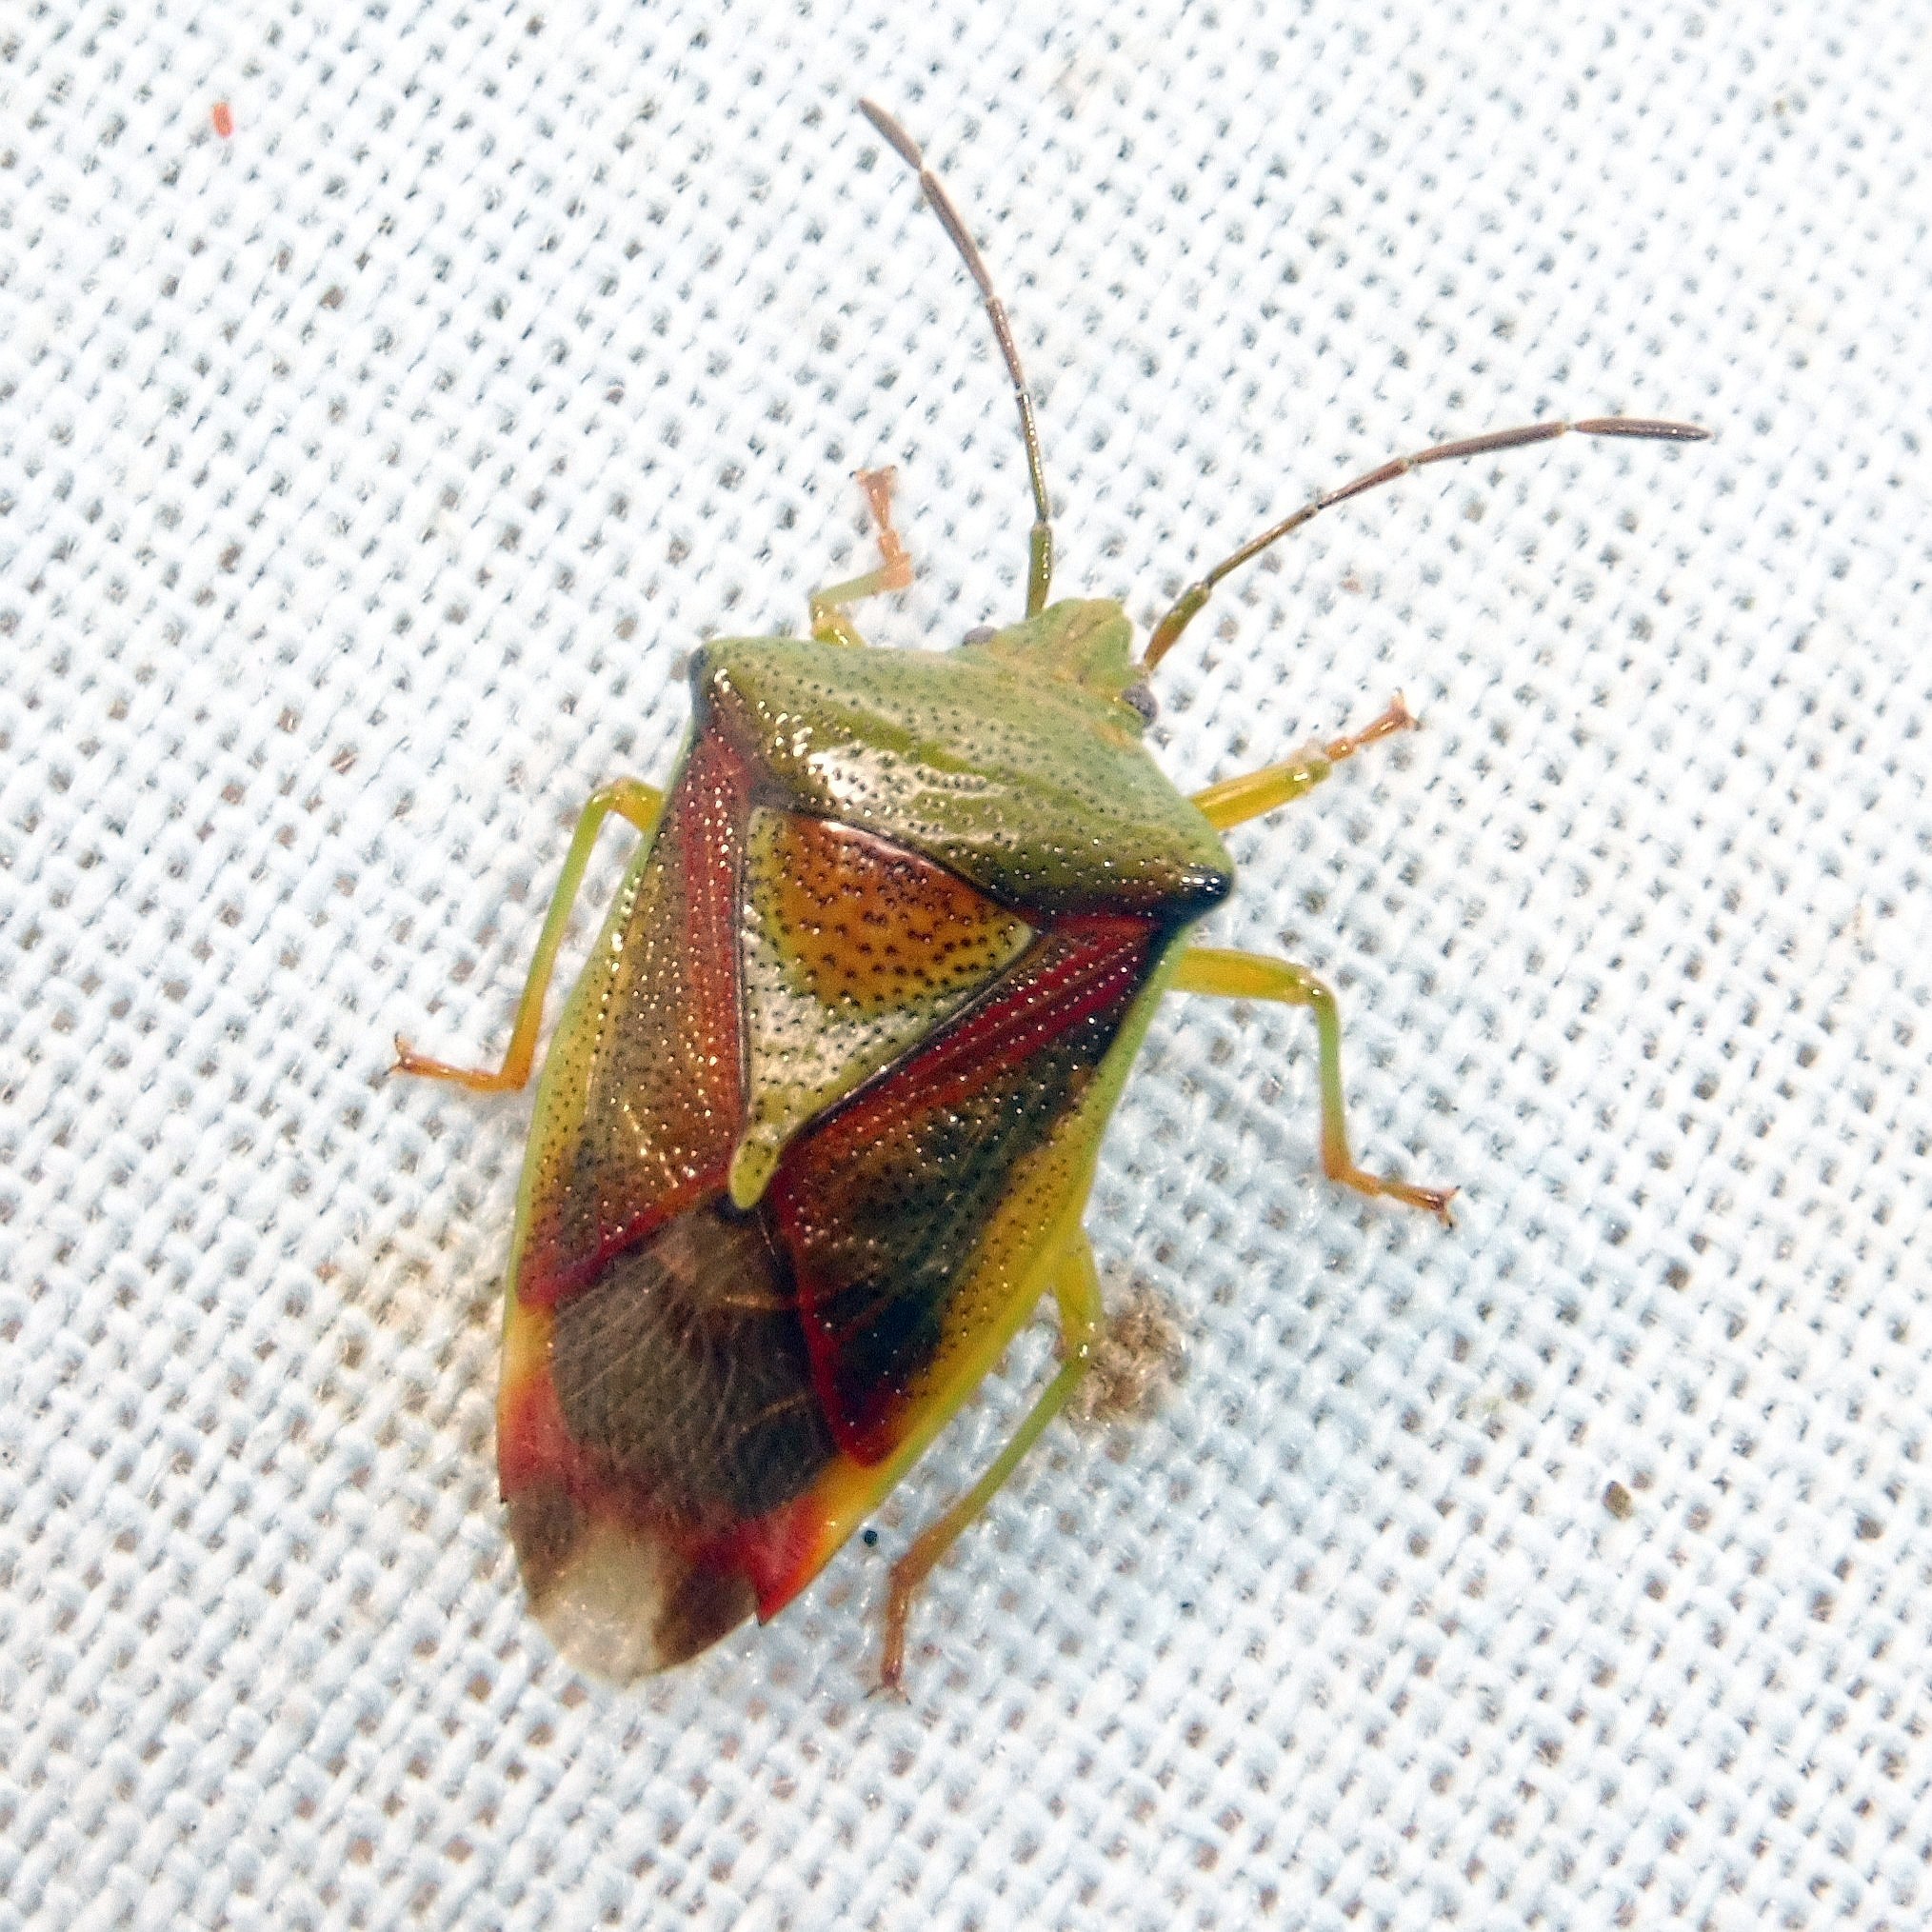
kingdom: Animalia
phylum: Arthropoda
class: Insecta
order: Hemiptera
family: Acanthosomatidae
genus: Elasmostethus
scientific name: Elasmostethus interstinctus
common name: Birch shieldbug
